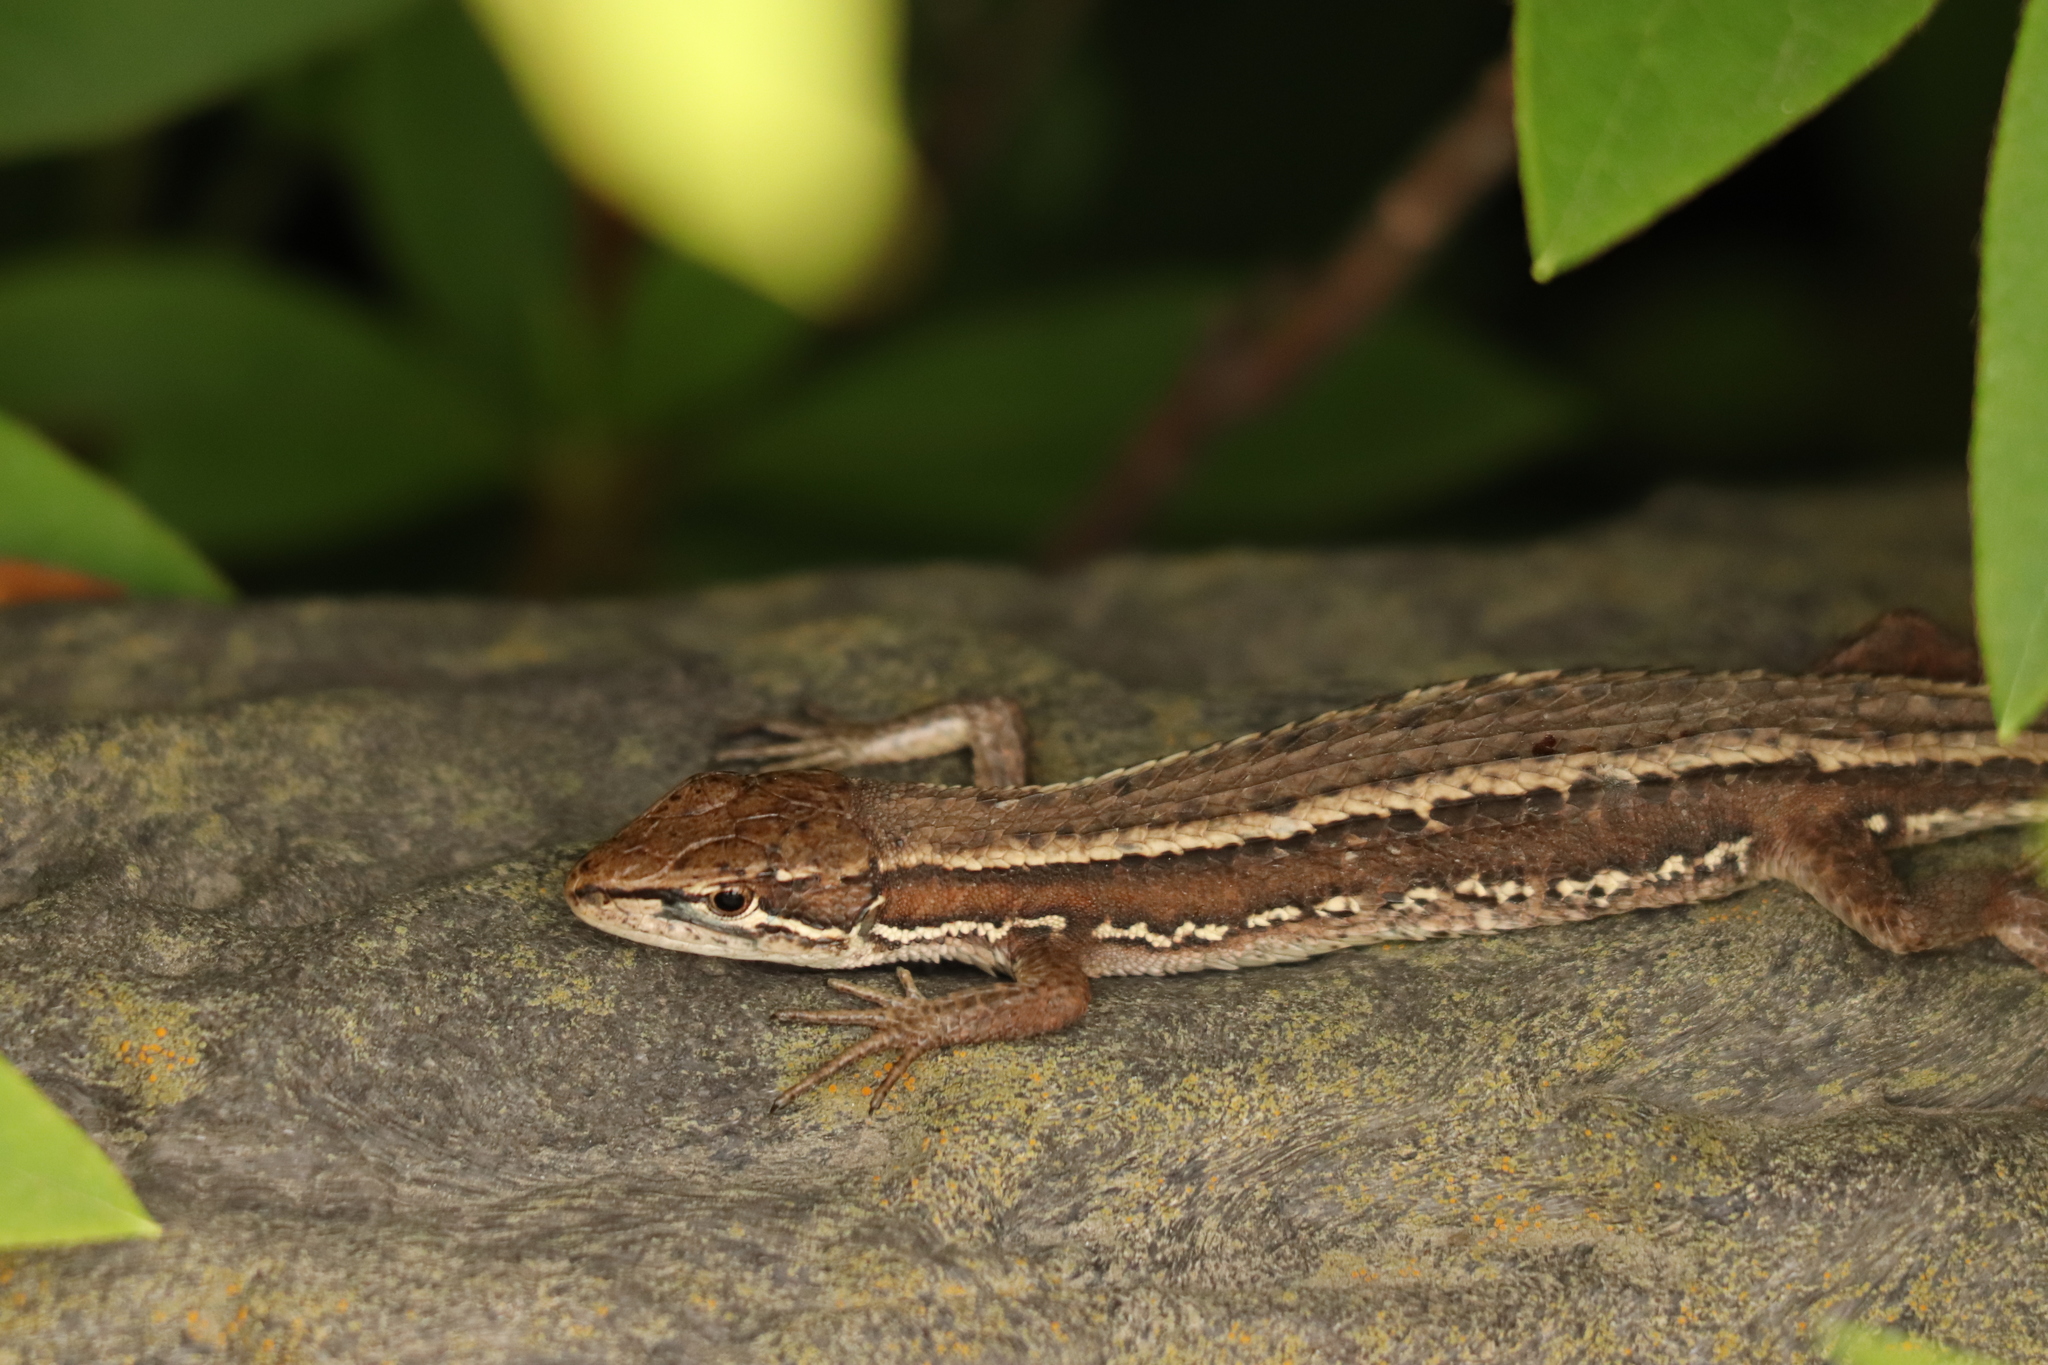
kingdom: Animalia
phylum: Chordata
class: Squamata
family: Lacertidae
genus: Takydromus
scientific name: Takydromus tachydromoides
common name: Japanese grass lizard
